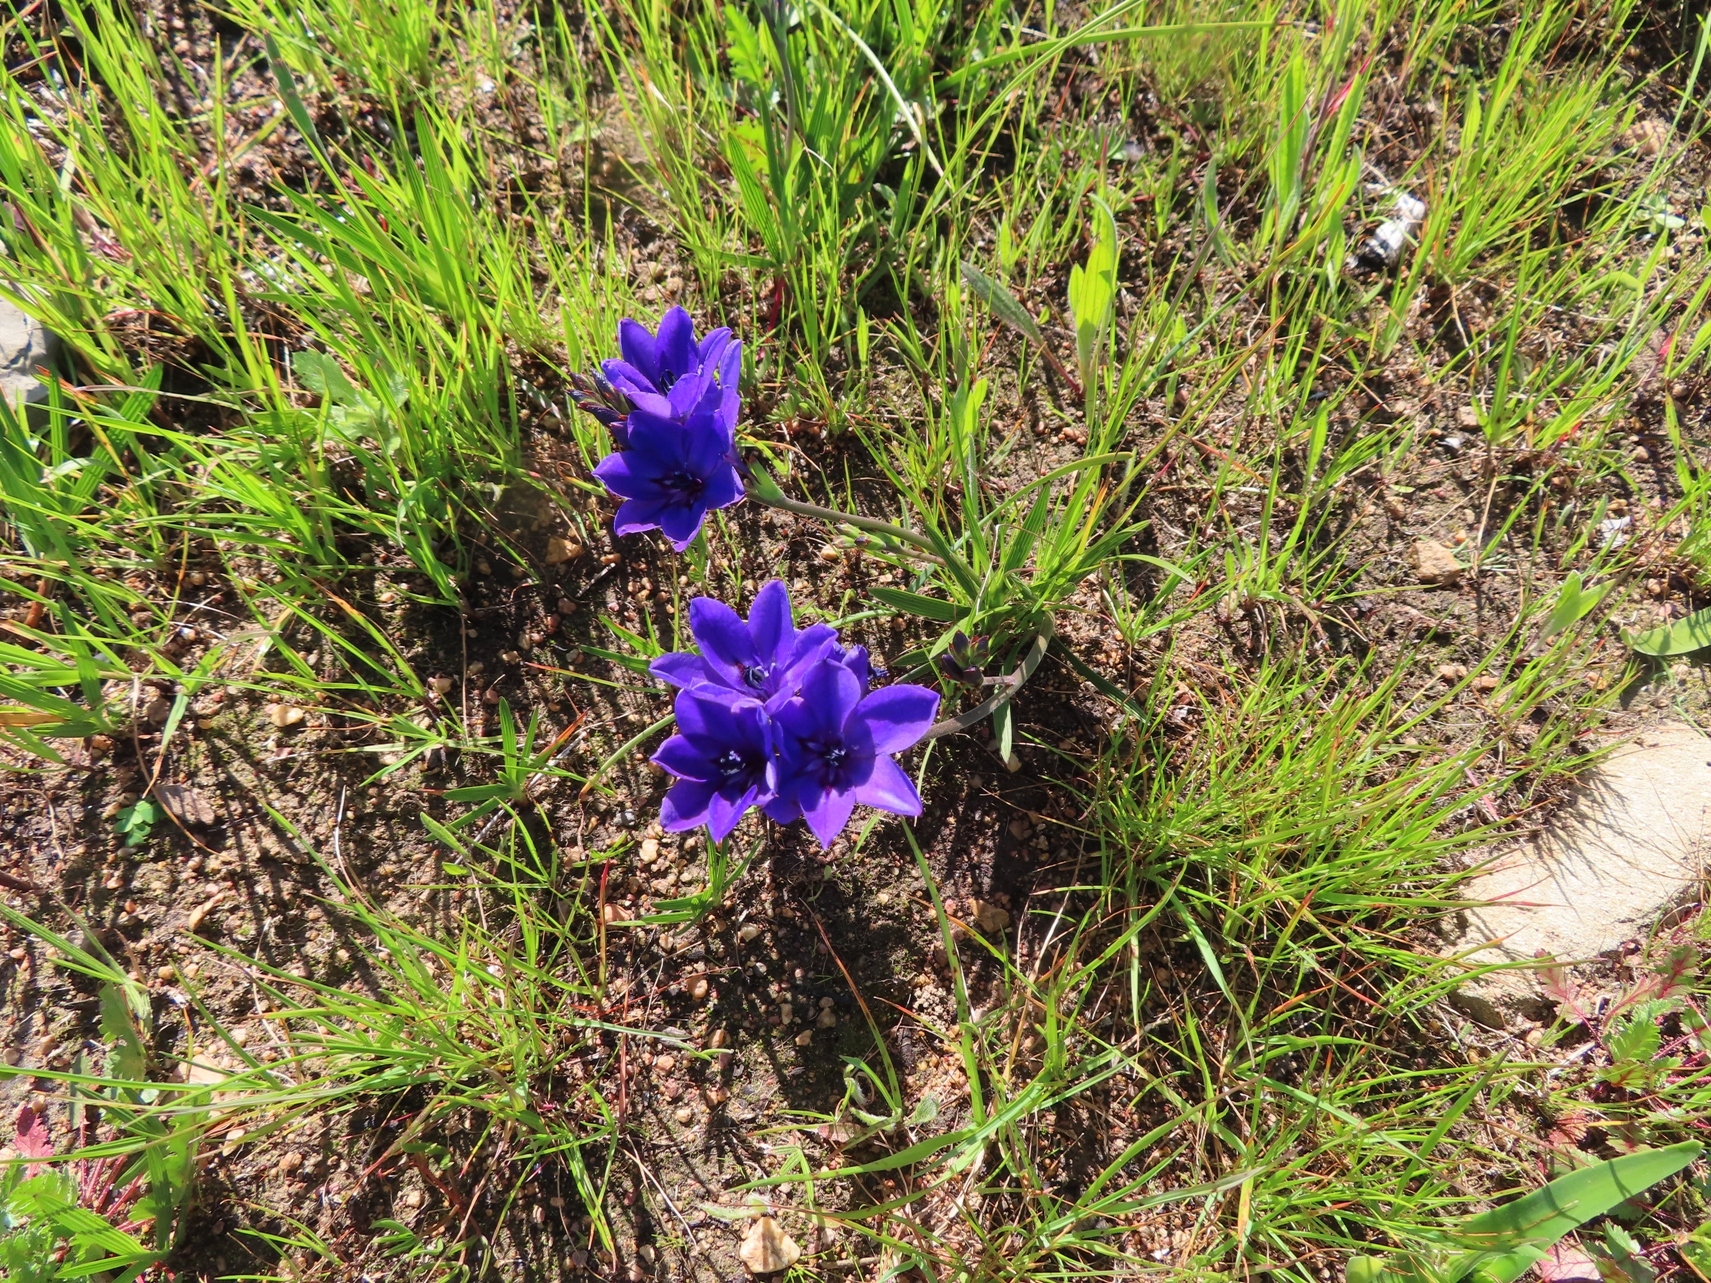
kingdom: Plantae
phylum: Tracheophyta
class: Liliopsida
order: Asparagales
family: Iridaceae
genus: Babiana
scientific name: Babiana angustifolia
